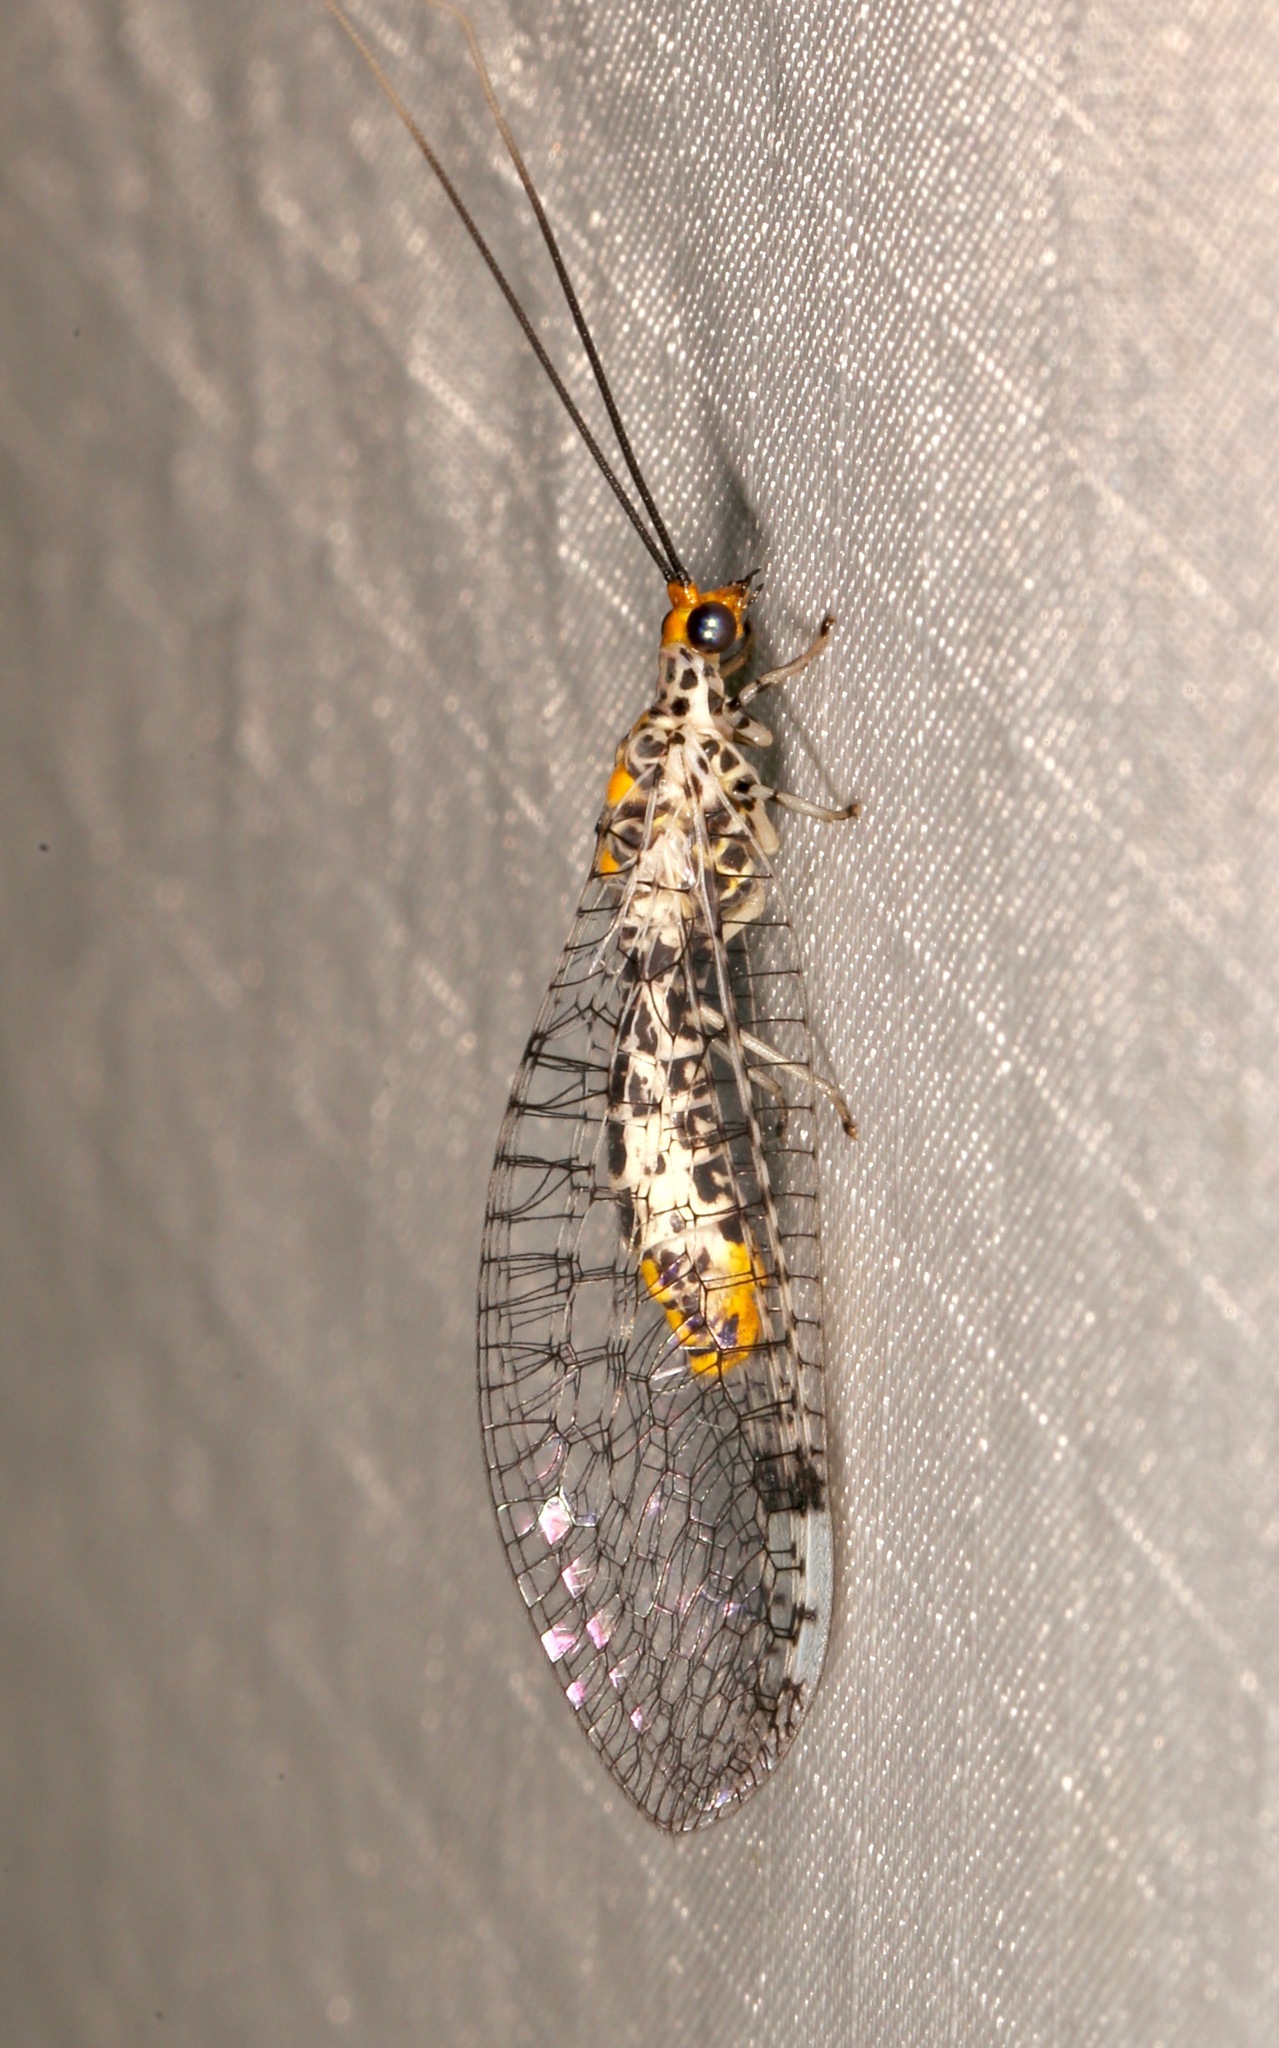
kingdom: Animalia
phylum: Arthropoda
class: Insecta
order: Neuroptera
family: Chrysopidae
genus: Abachrysa
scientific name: Abachrysa eureka
